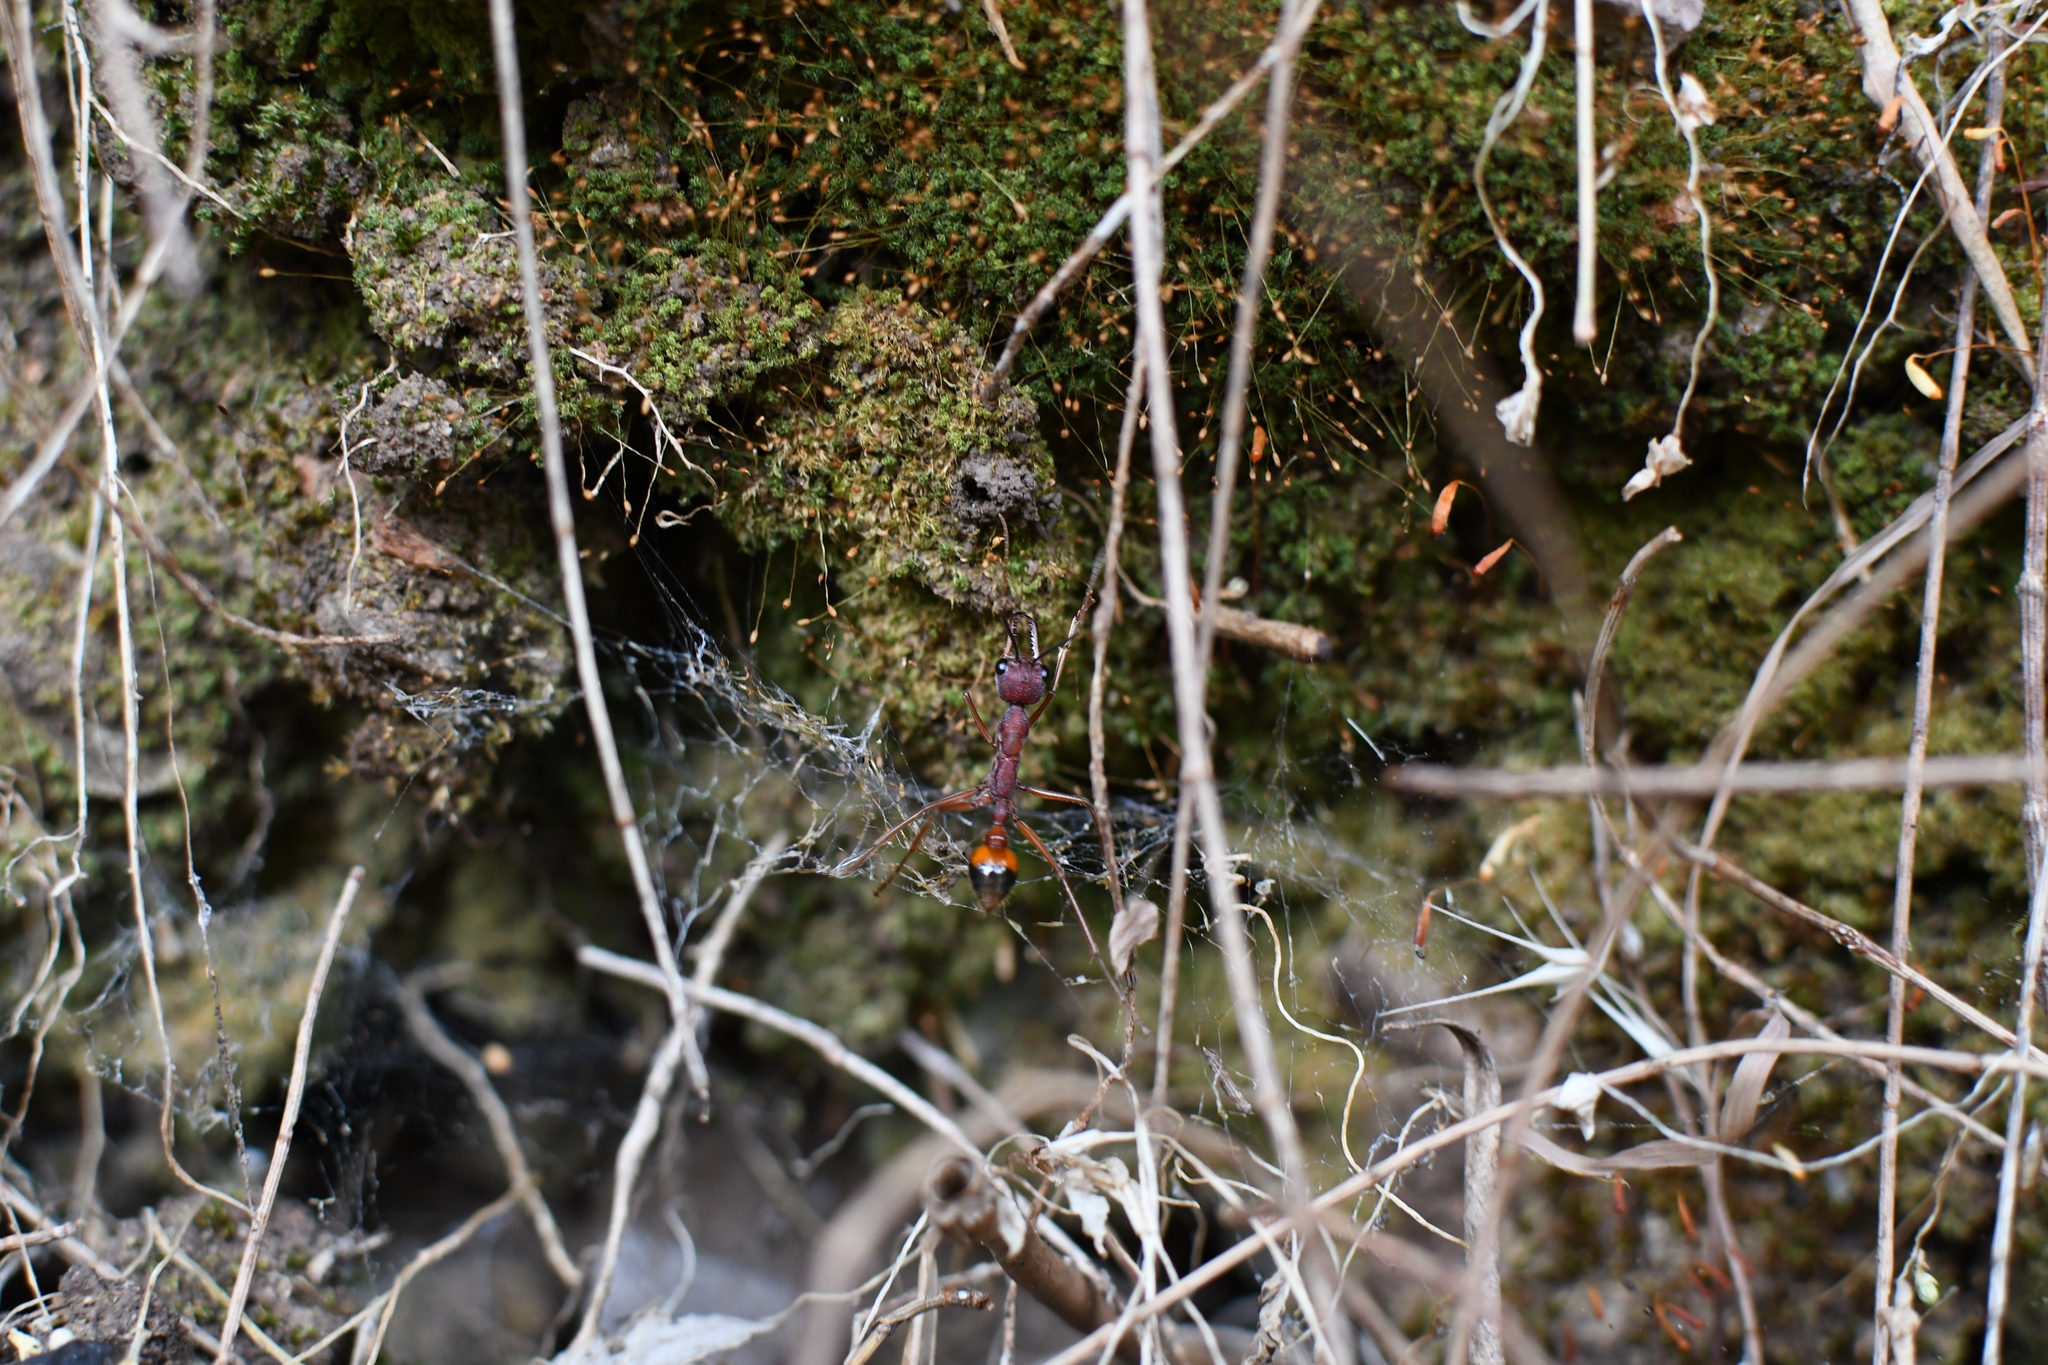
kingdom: Animalia
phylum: Arthropoda
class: Insecta
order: Hymenoptera
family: Formicidae
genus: Myrmecia
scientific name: Myrmecia nigriscapa
